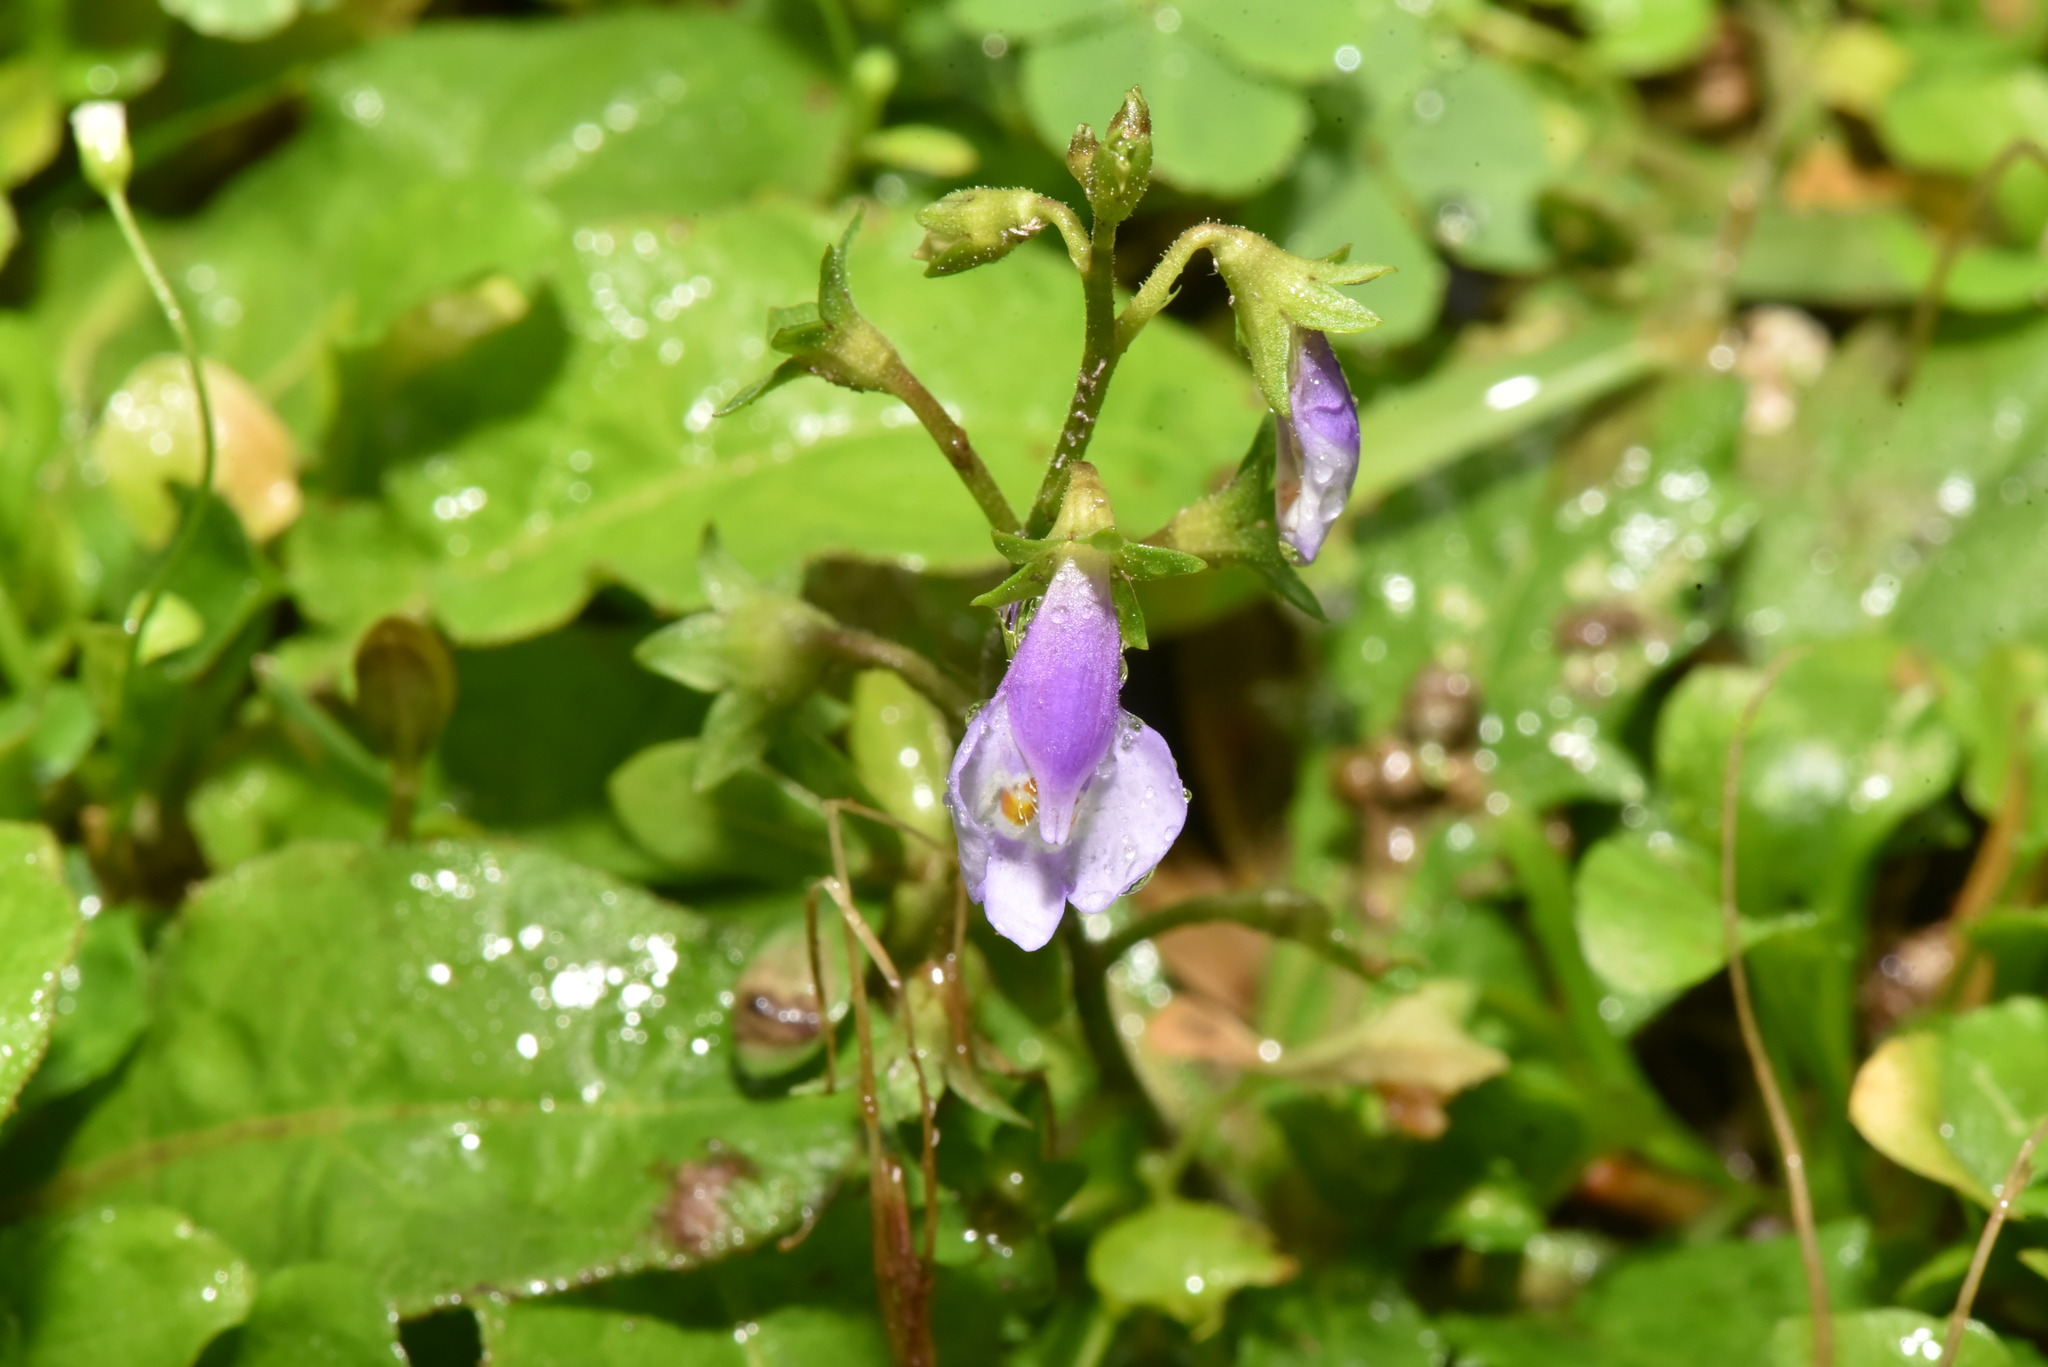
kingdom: Plantae
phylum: Tracheophyta
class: Magnoliopsida
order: Lamiales
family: Mazaceae
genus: Mazus
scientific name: Mazus fauriei
